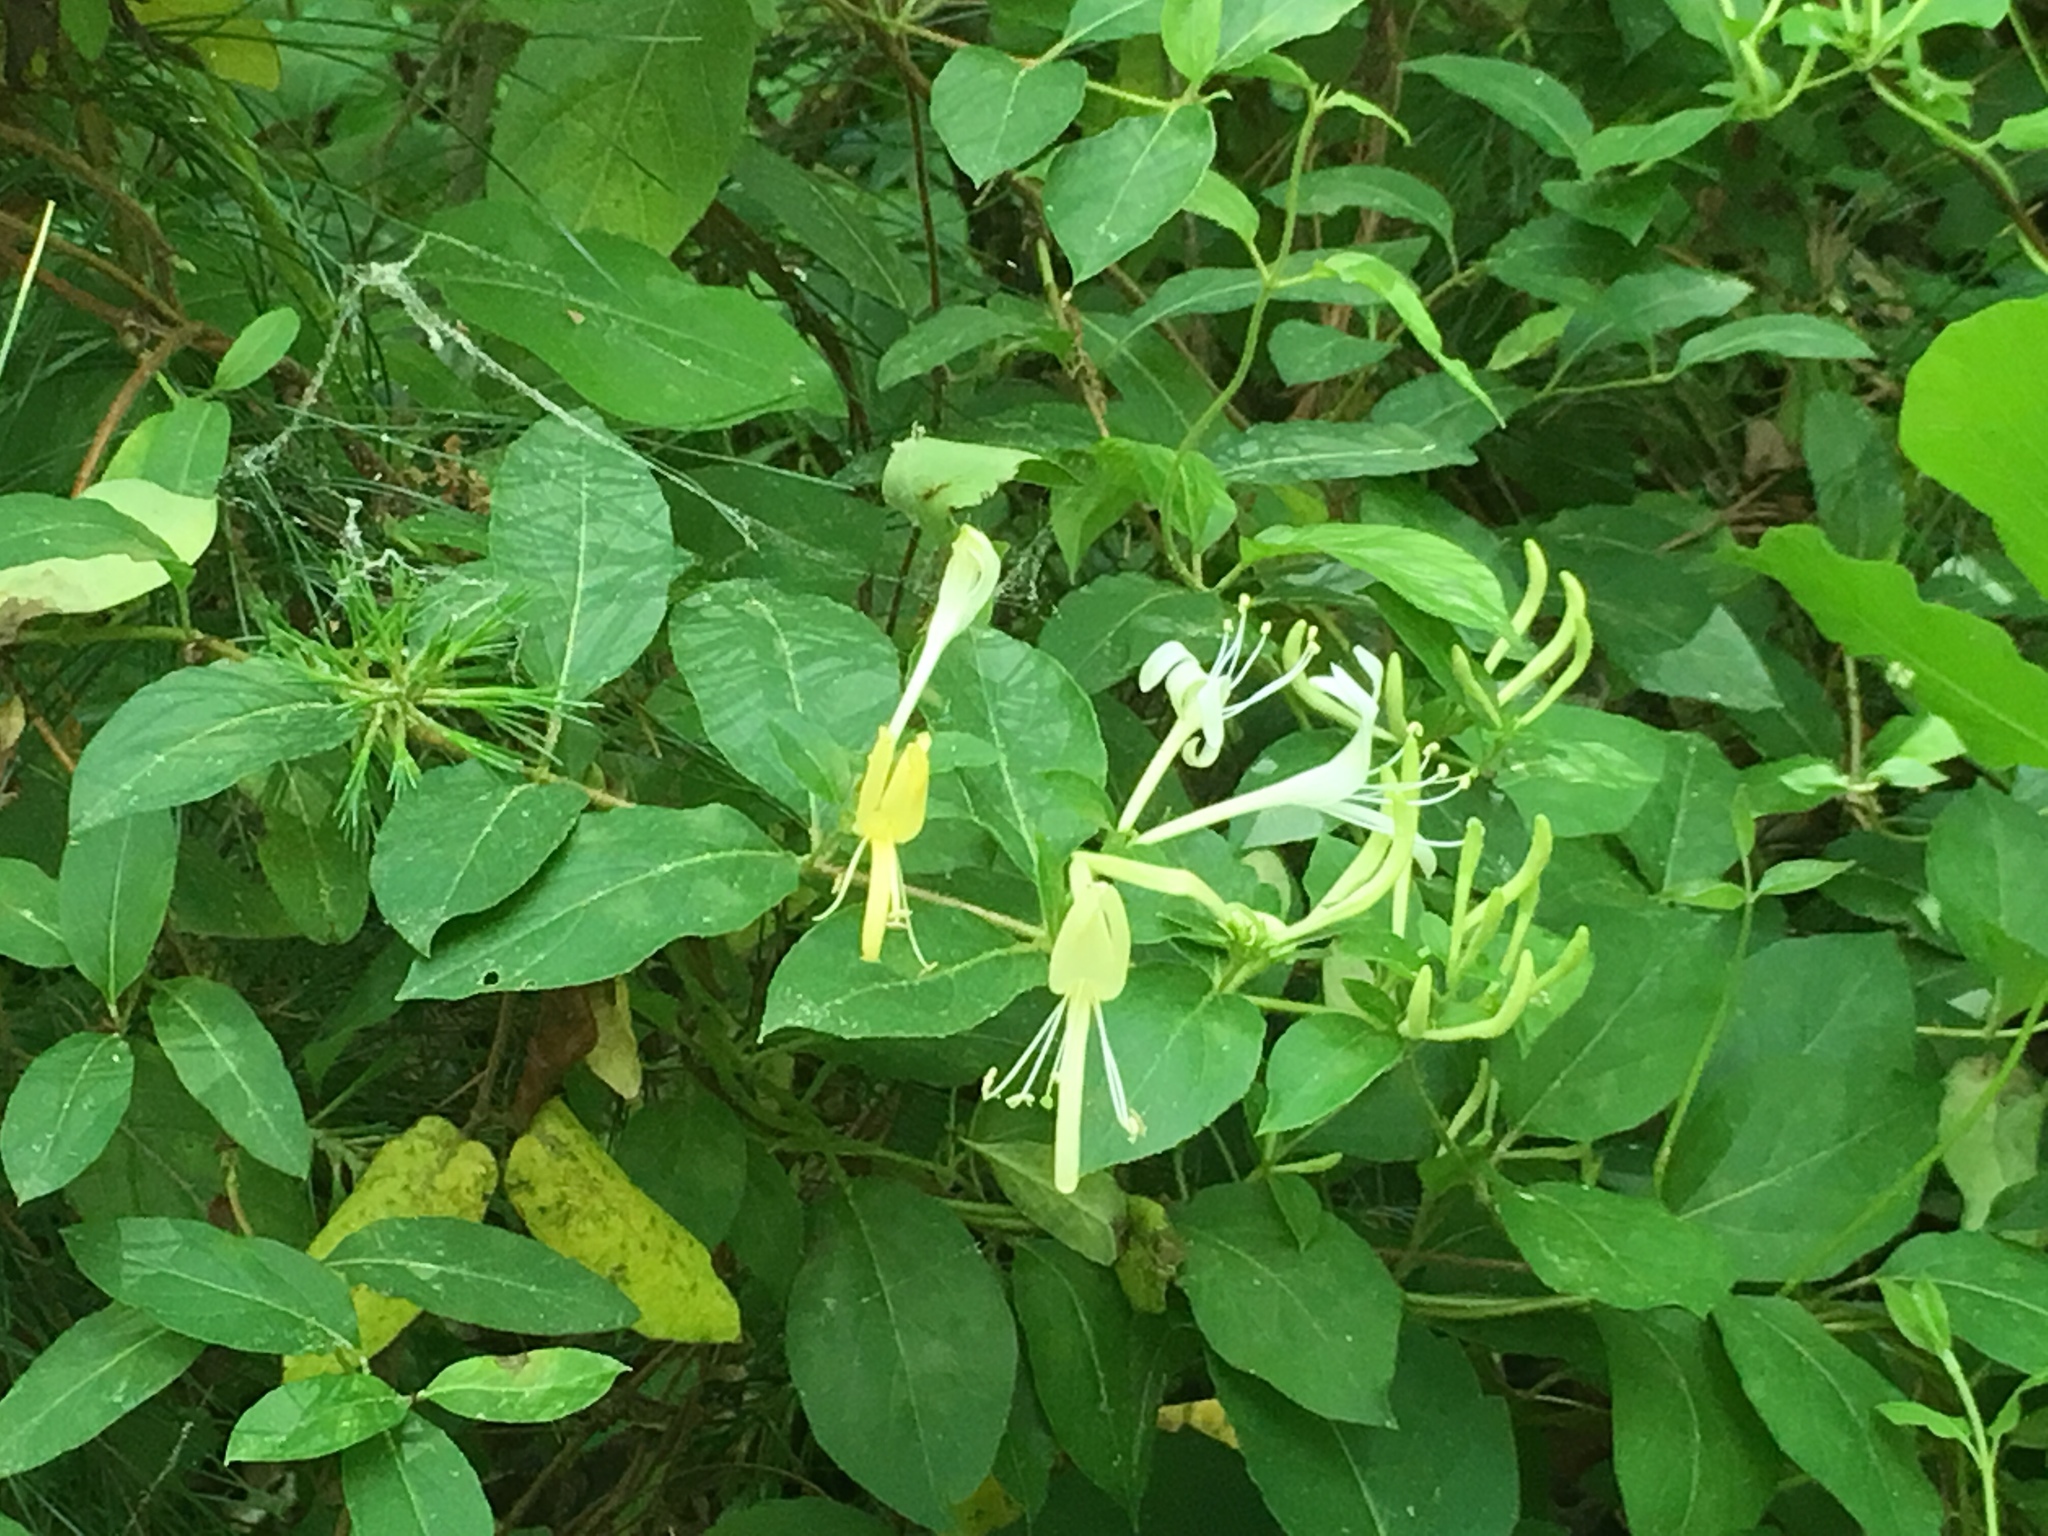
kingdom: Plantae
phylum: Tracheophyta
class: Magnoliopsida
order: Dipsacales
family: Caprifoliaceae
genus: Lonicera
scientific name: Lonicera japonica
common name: Japanese honeysuckle
